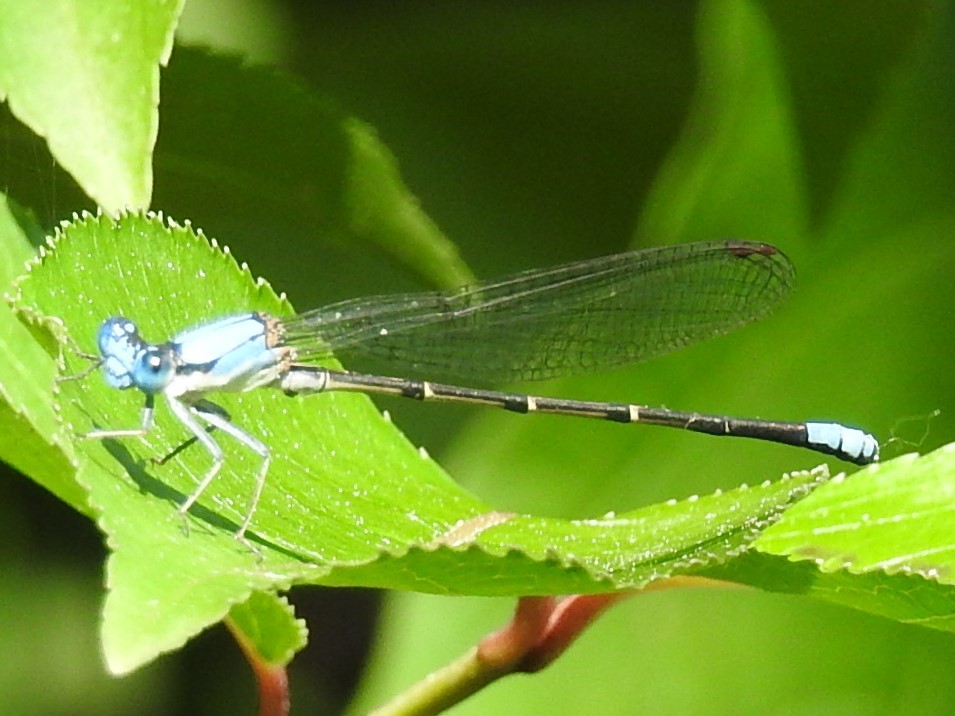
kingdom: Animalia
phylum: Arthropoda
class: Insecta
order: Odonata
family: Coenagrionidae
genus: Argia
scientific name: Argia apicalis
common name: Blue-fronted dancer
